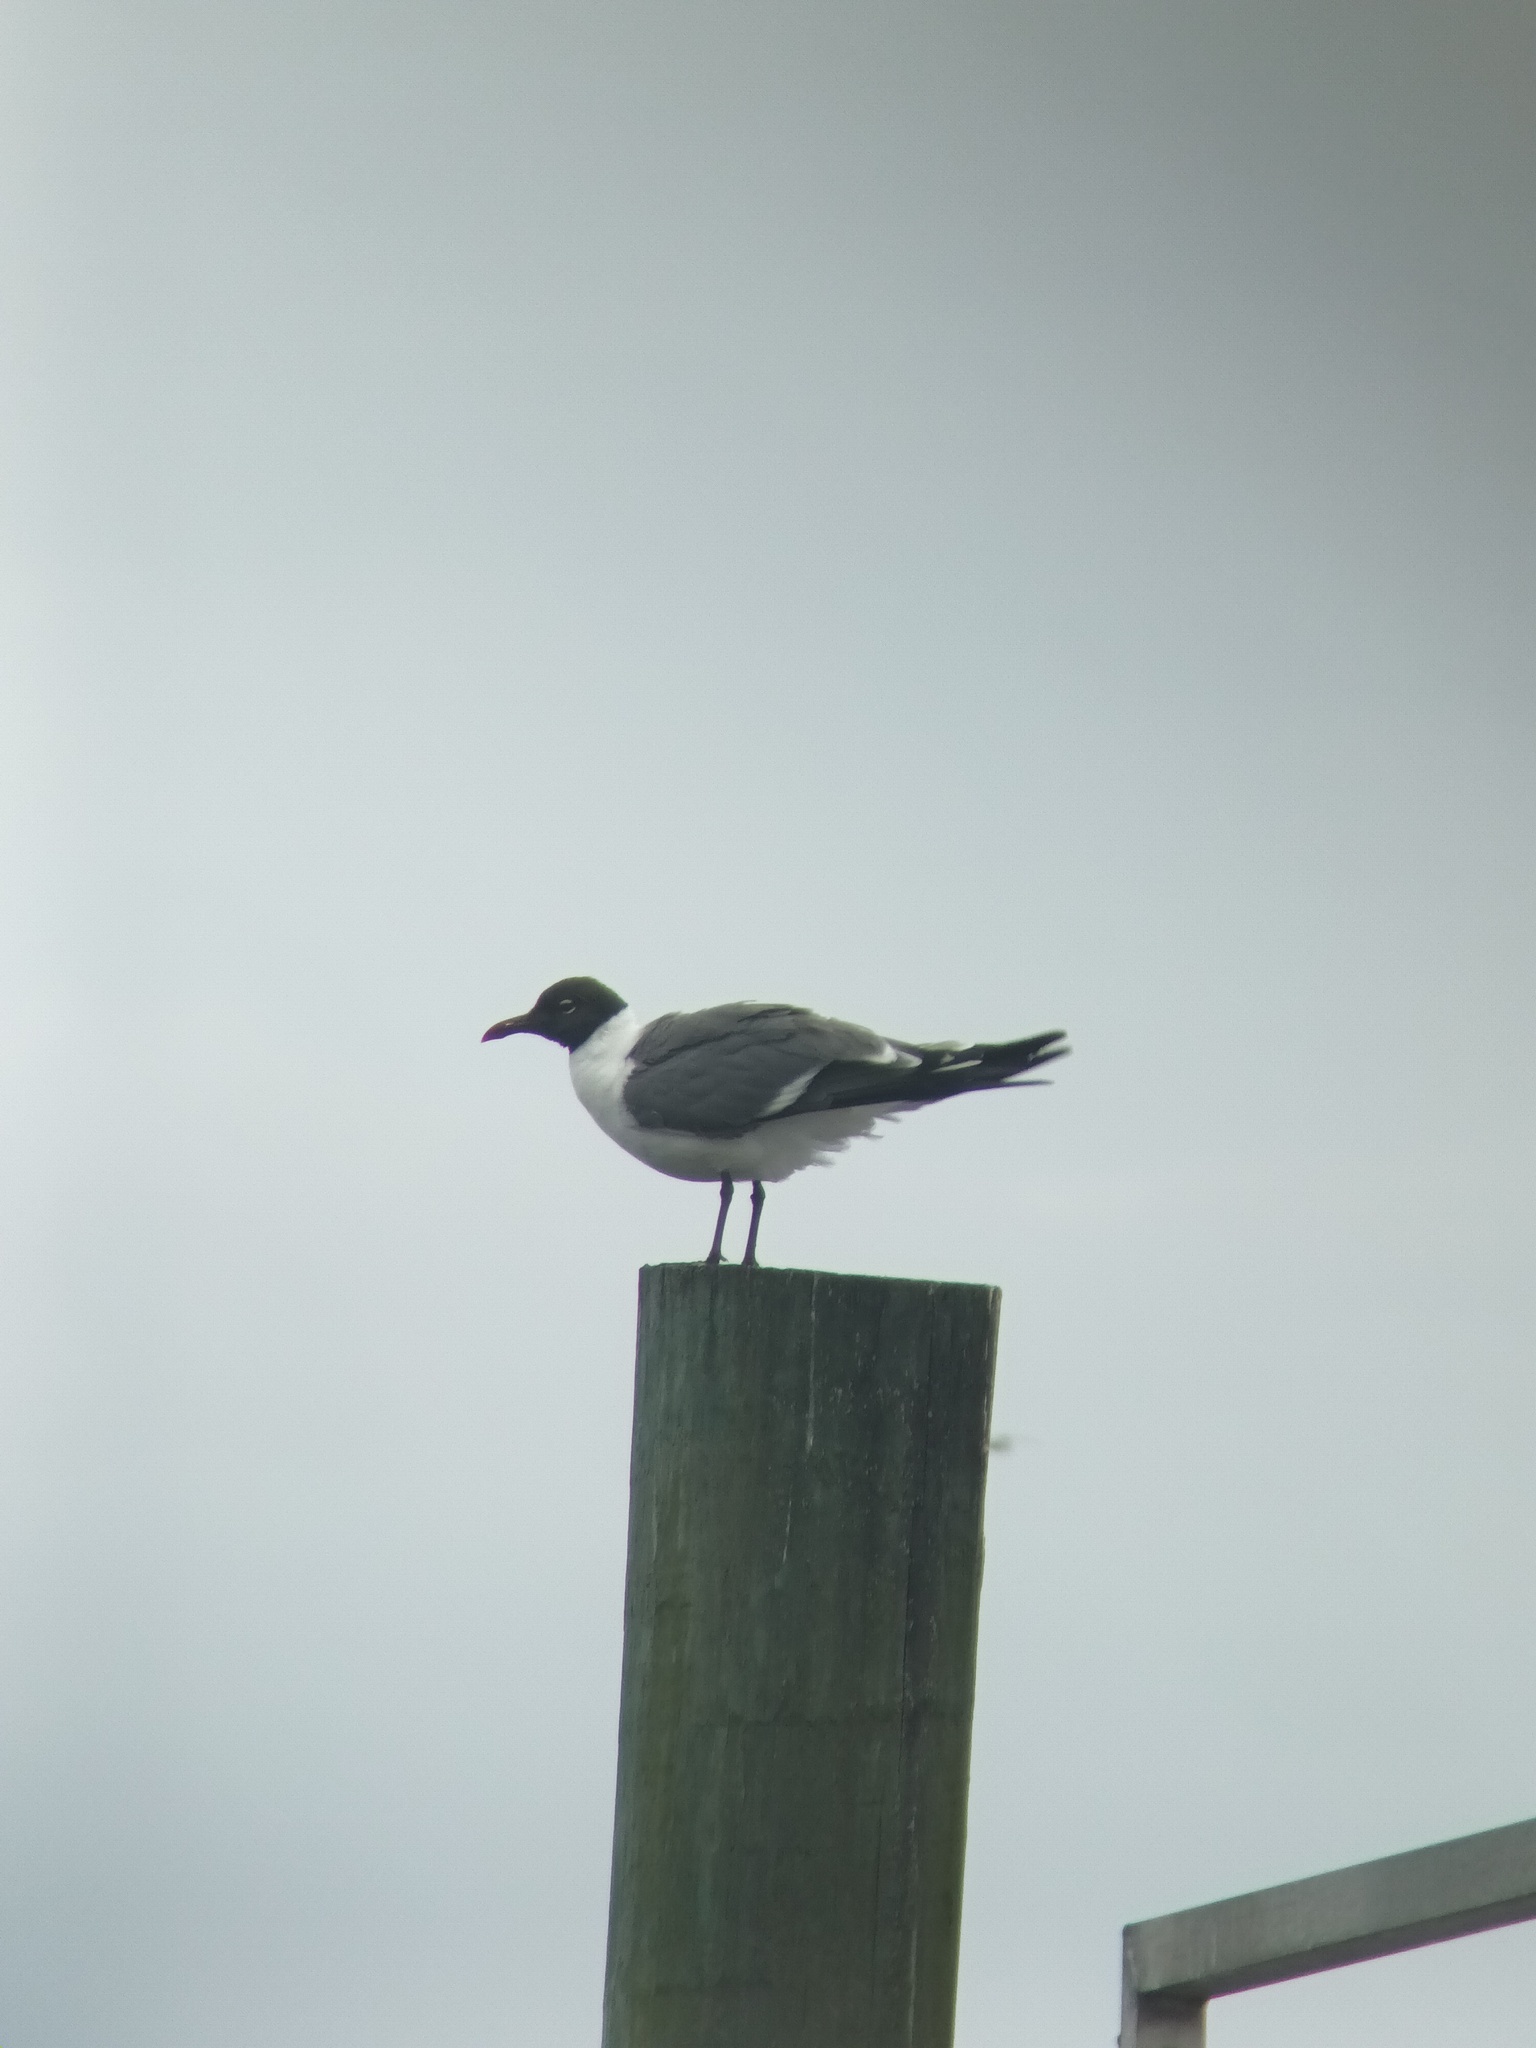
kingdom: Animalia
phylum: Chordata
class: Aves
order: Charadriiformes
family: Laridae
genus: Leucophaeus
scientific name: Leucophaeus atricilla
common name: Laughing gull
